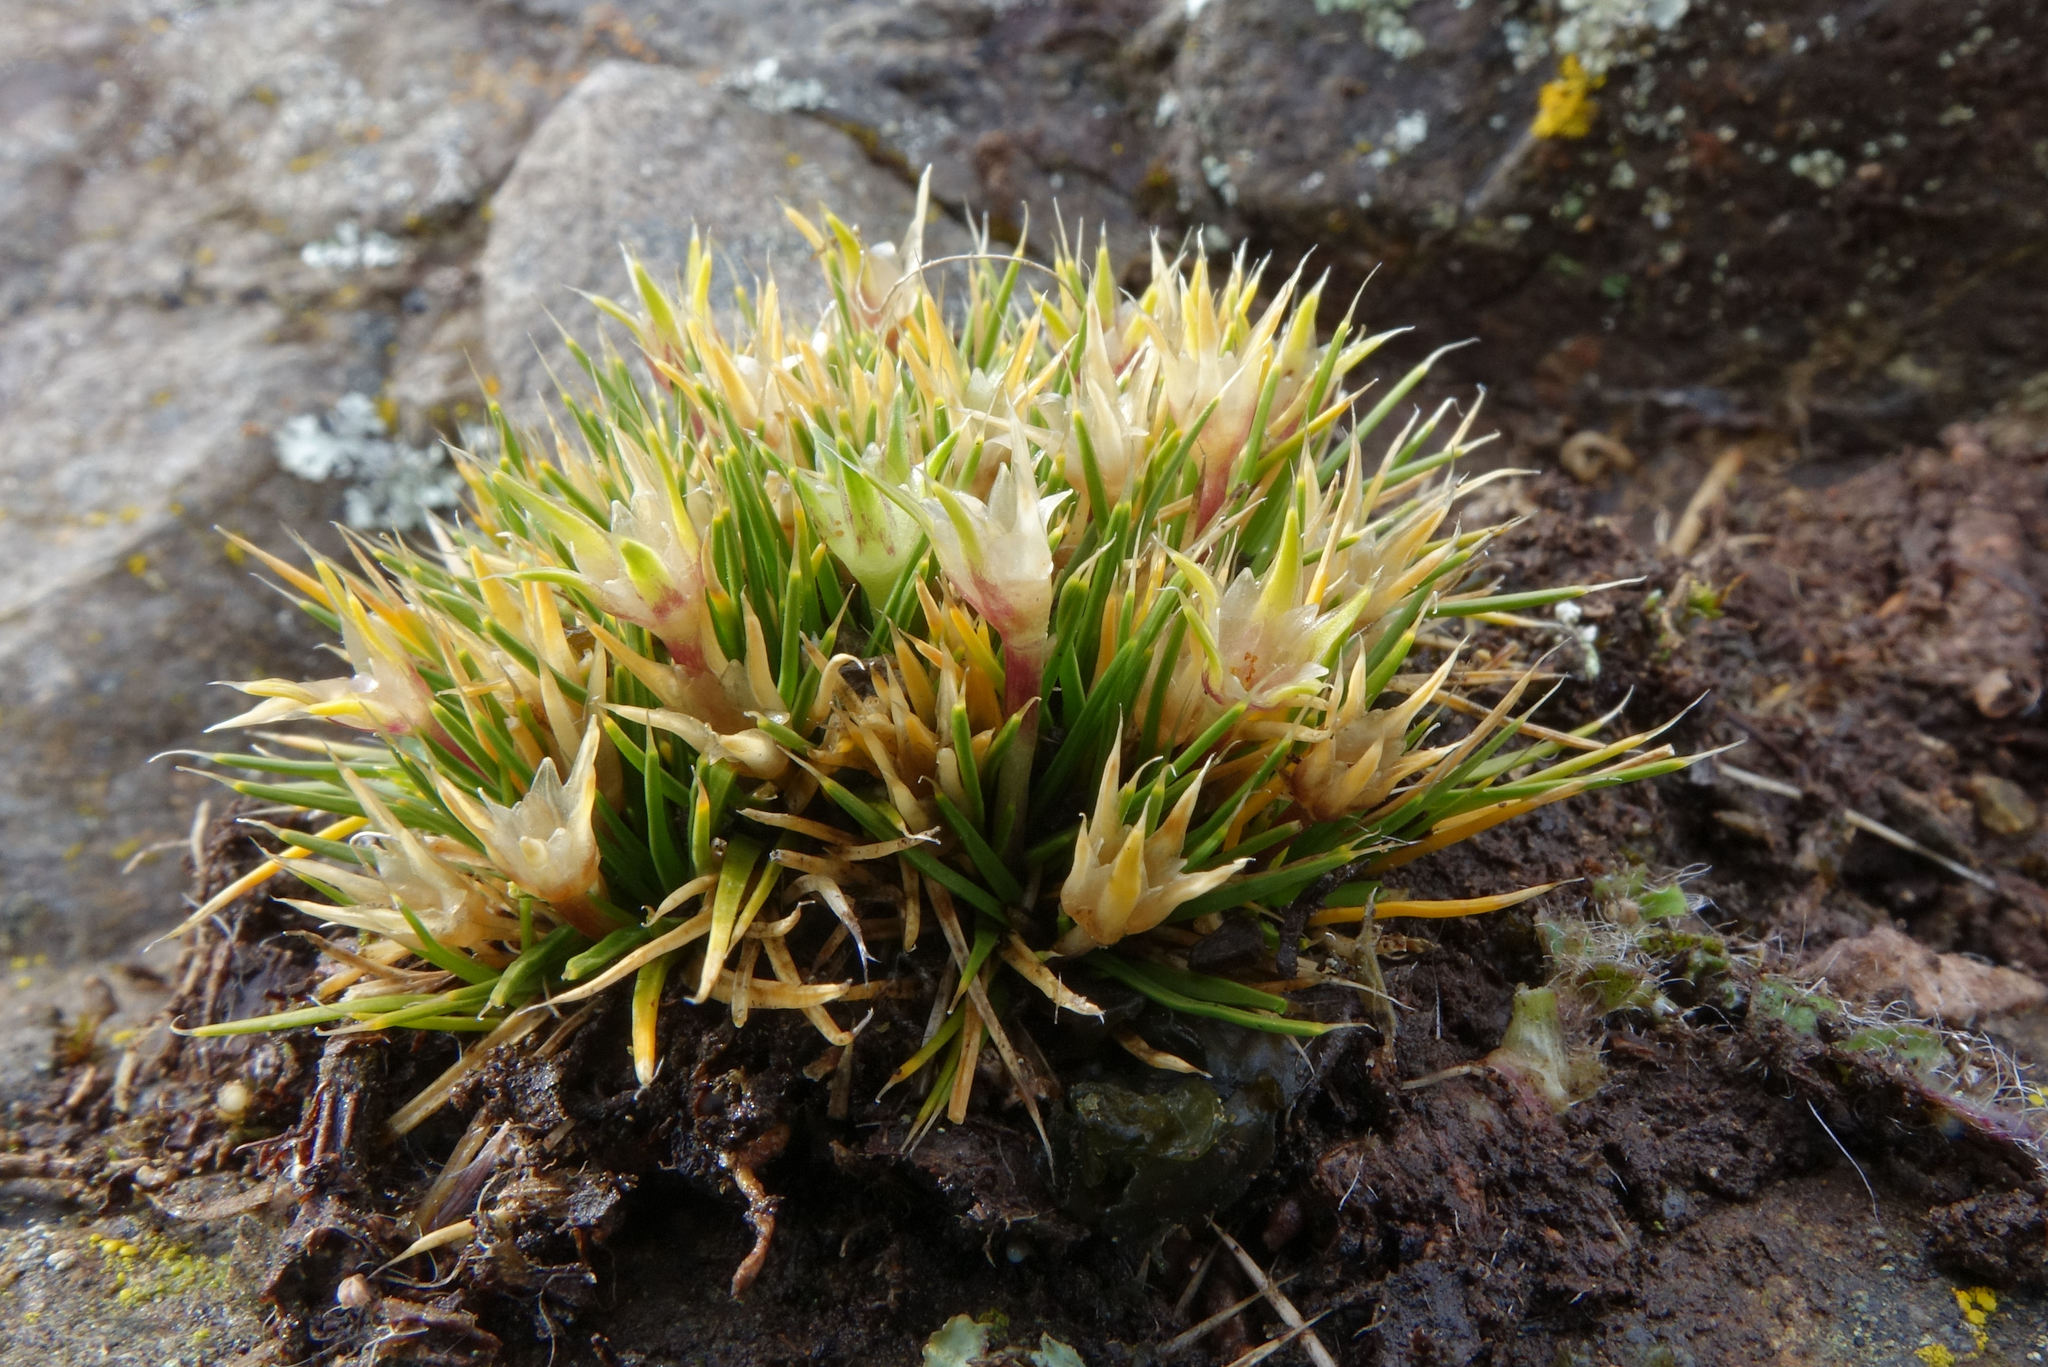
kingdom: Plantae
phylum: Tracheophyta
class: Magnoliopsida
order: Caryophyllales
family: Caryophyllaceae
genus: Colobanthus
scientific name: Colobanthus strictus
